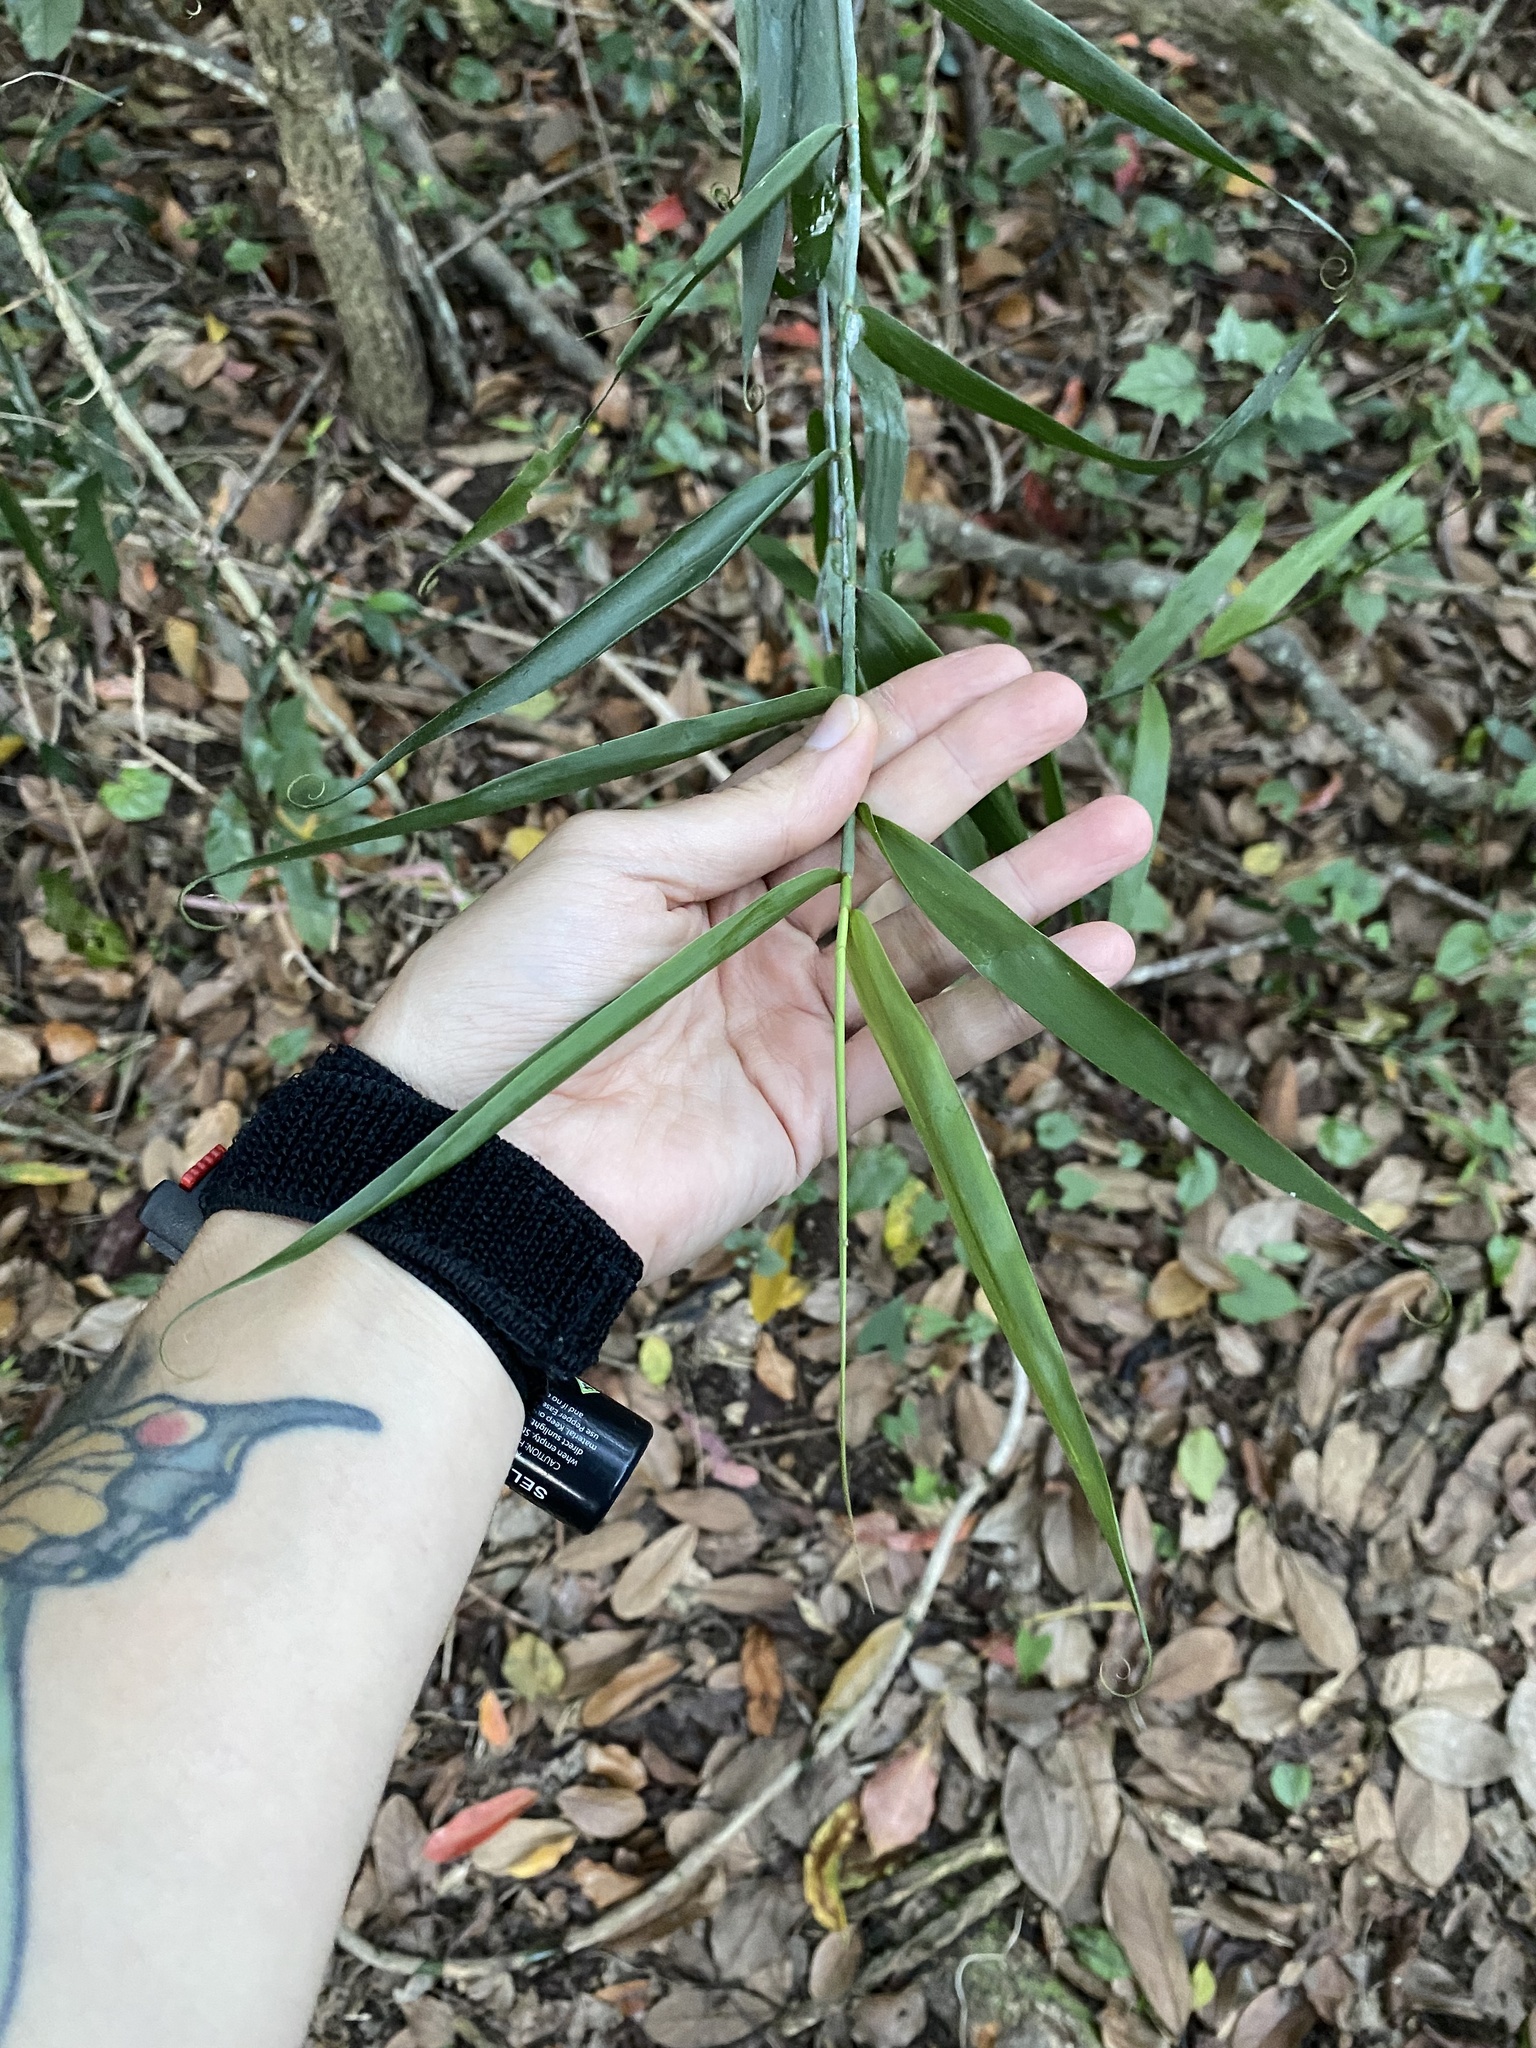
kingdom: Plantae
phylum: Tracheophyta
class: Liliopsida
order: Poales
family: Flagellariaceae
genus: Flagellaria
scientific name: Flagellaria guineensis
